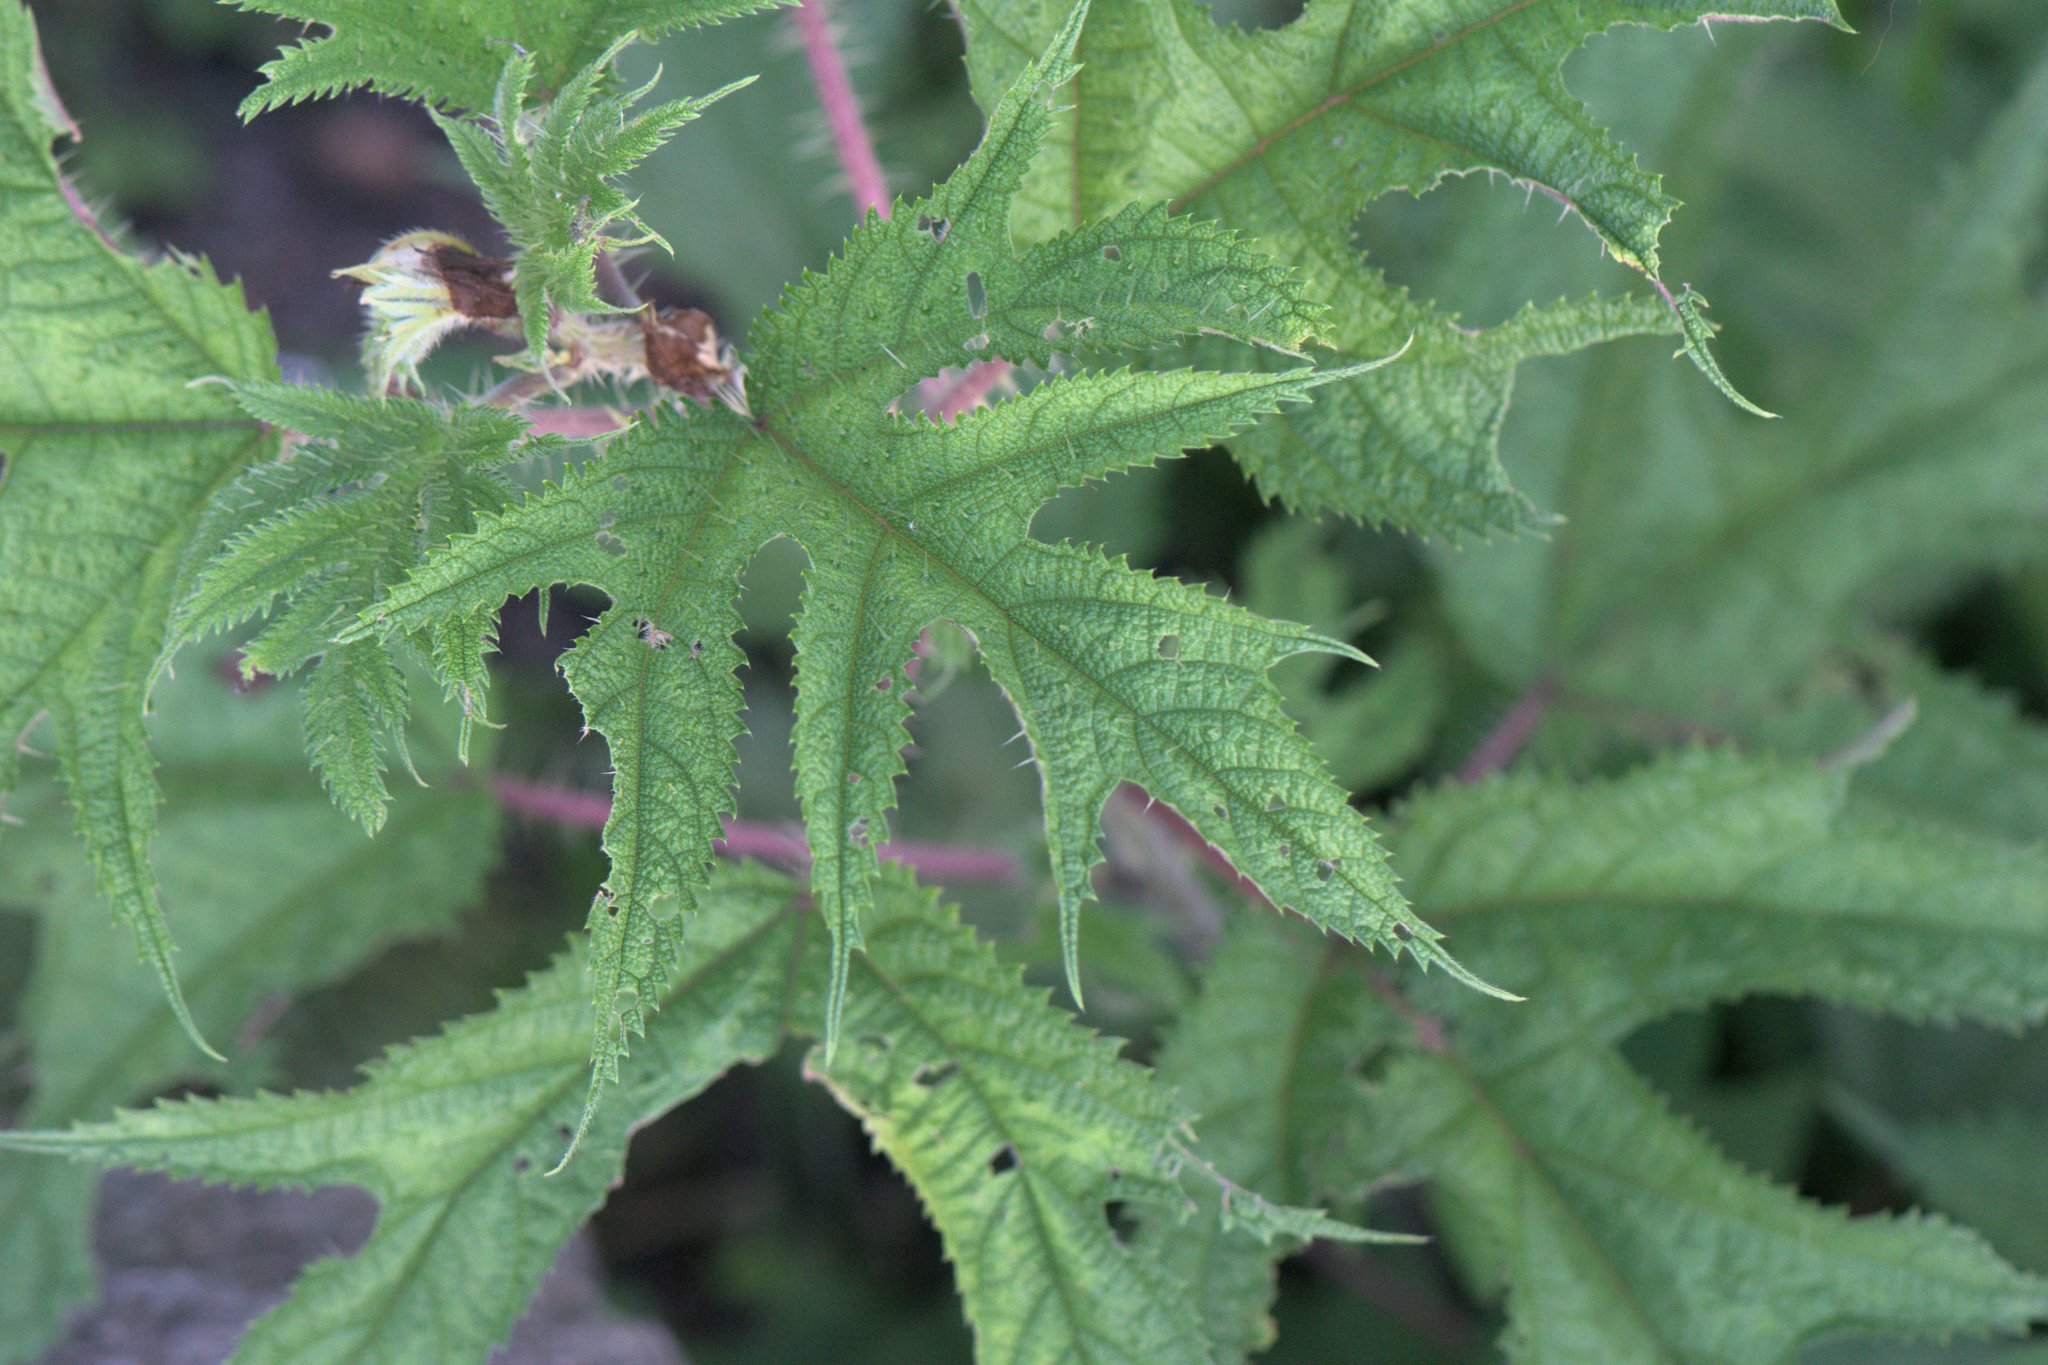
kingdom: Plantae
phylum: Tracheophyta
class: Magnoliopsida
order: Rosales
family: Urticaceae
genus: Girardinia
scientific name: Girardinia diversifolia
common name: Himalayan-nettle
